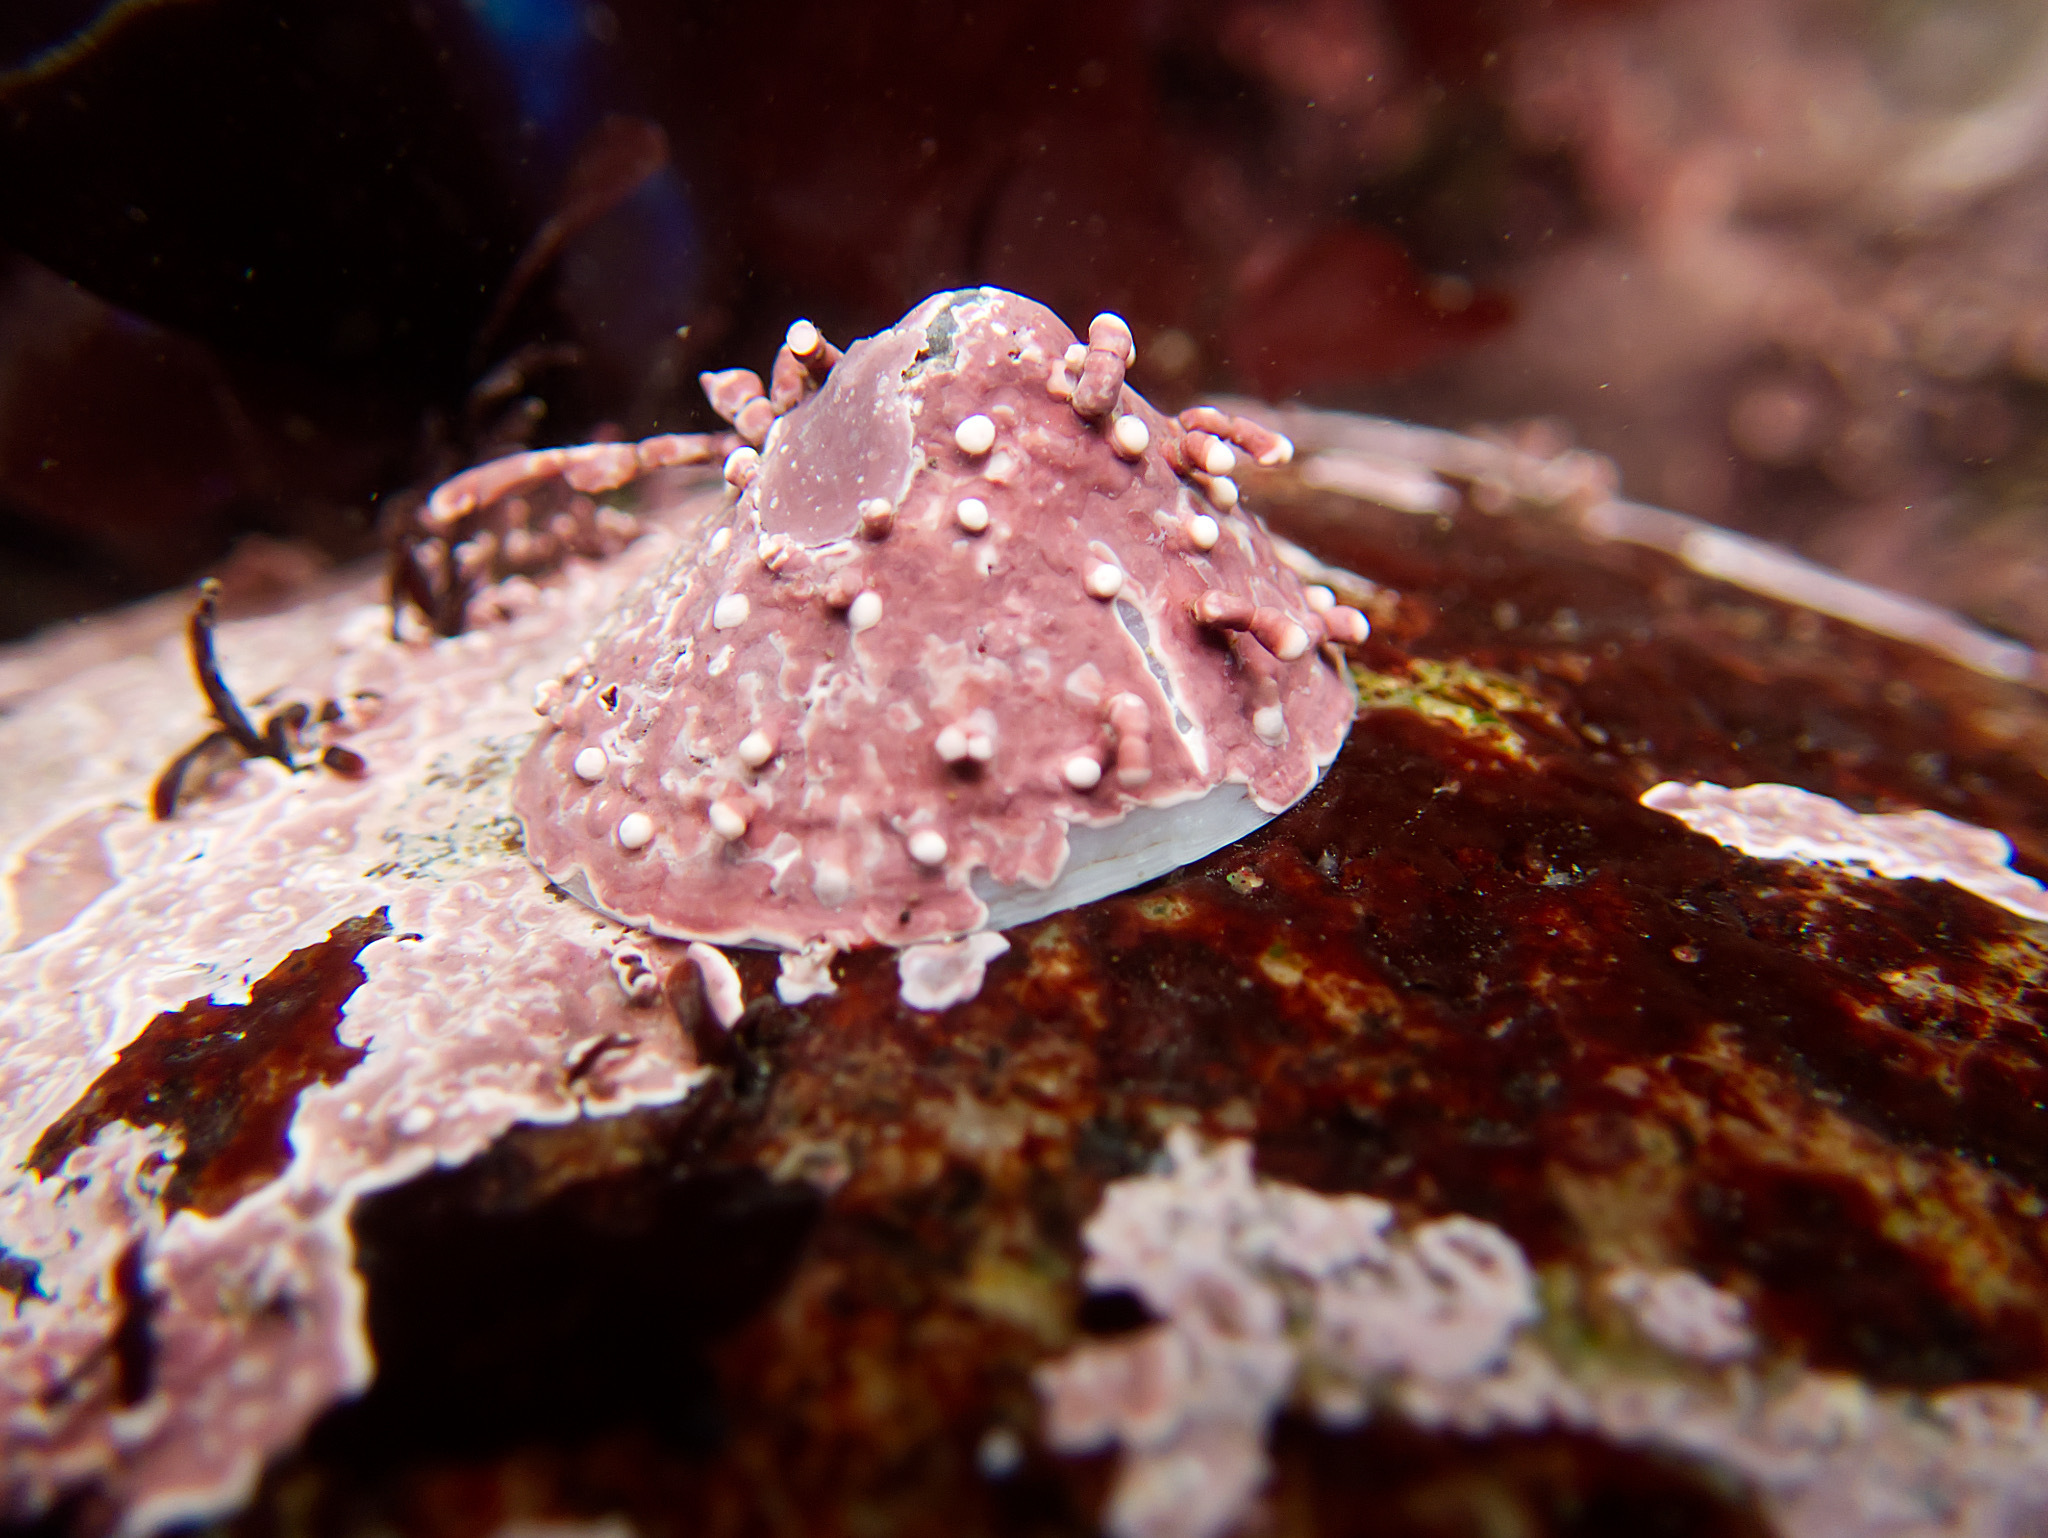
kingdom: Animalia
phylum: Mollusca
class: Gastropoda
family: Acmaeidae
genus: Acmaea
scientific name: Acmaea mitra
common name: Pacific white cap limpet
